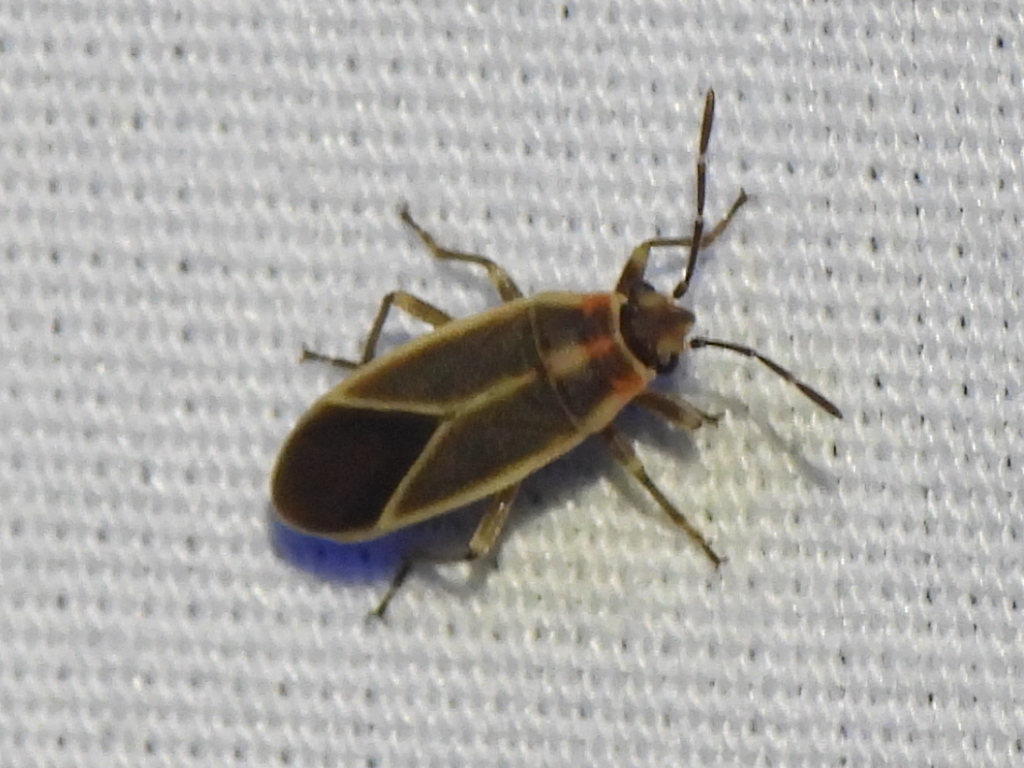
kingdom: Animalia
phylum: Arthropoda
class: Insecta
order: Hemiptera
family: Lygaeidae
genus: Ochrimnus
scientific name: Ochrimnus mimulus
